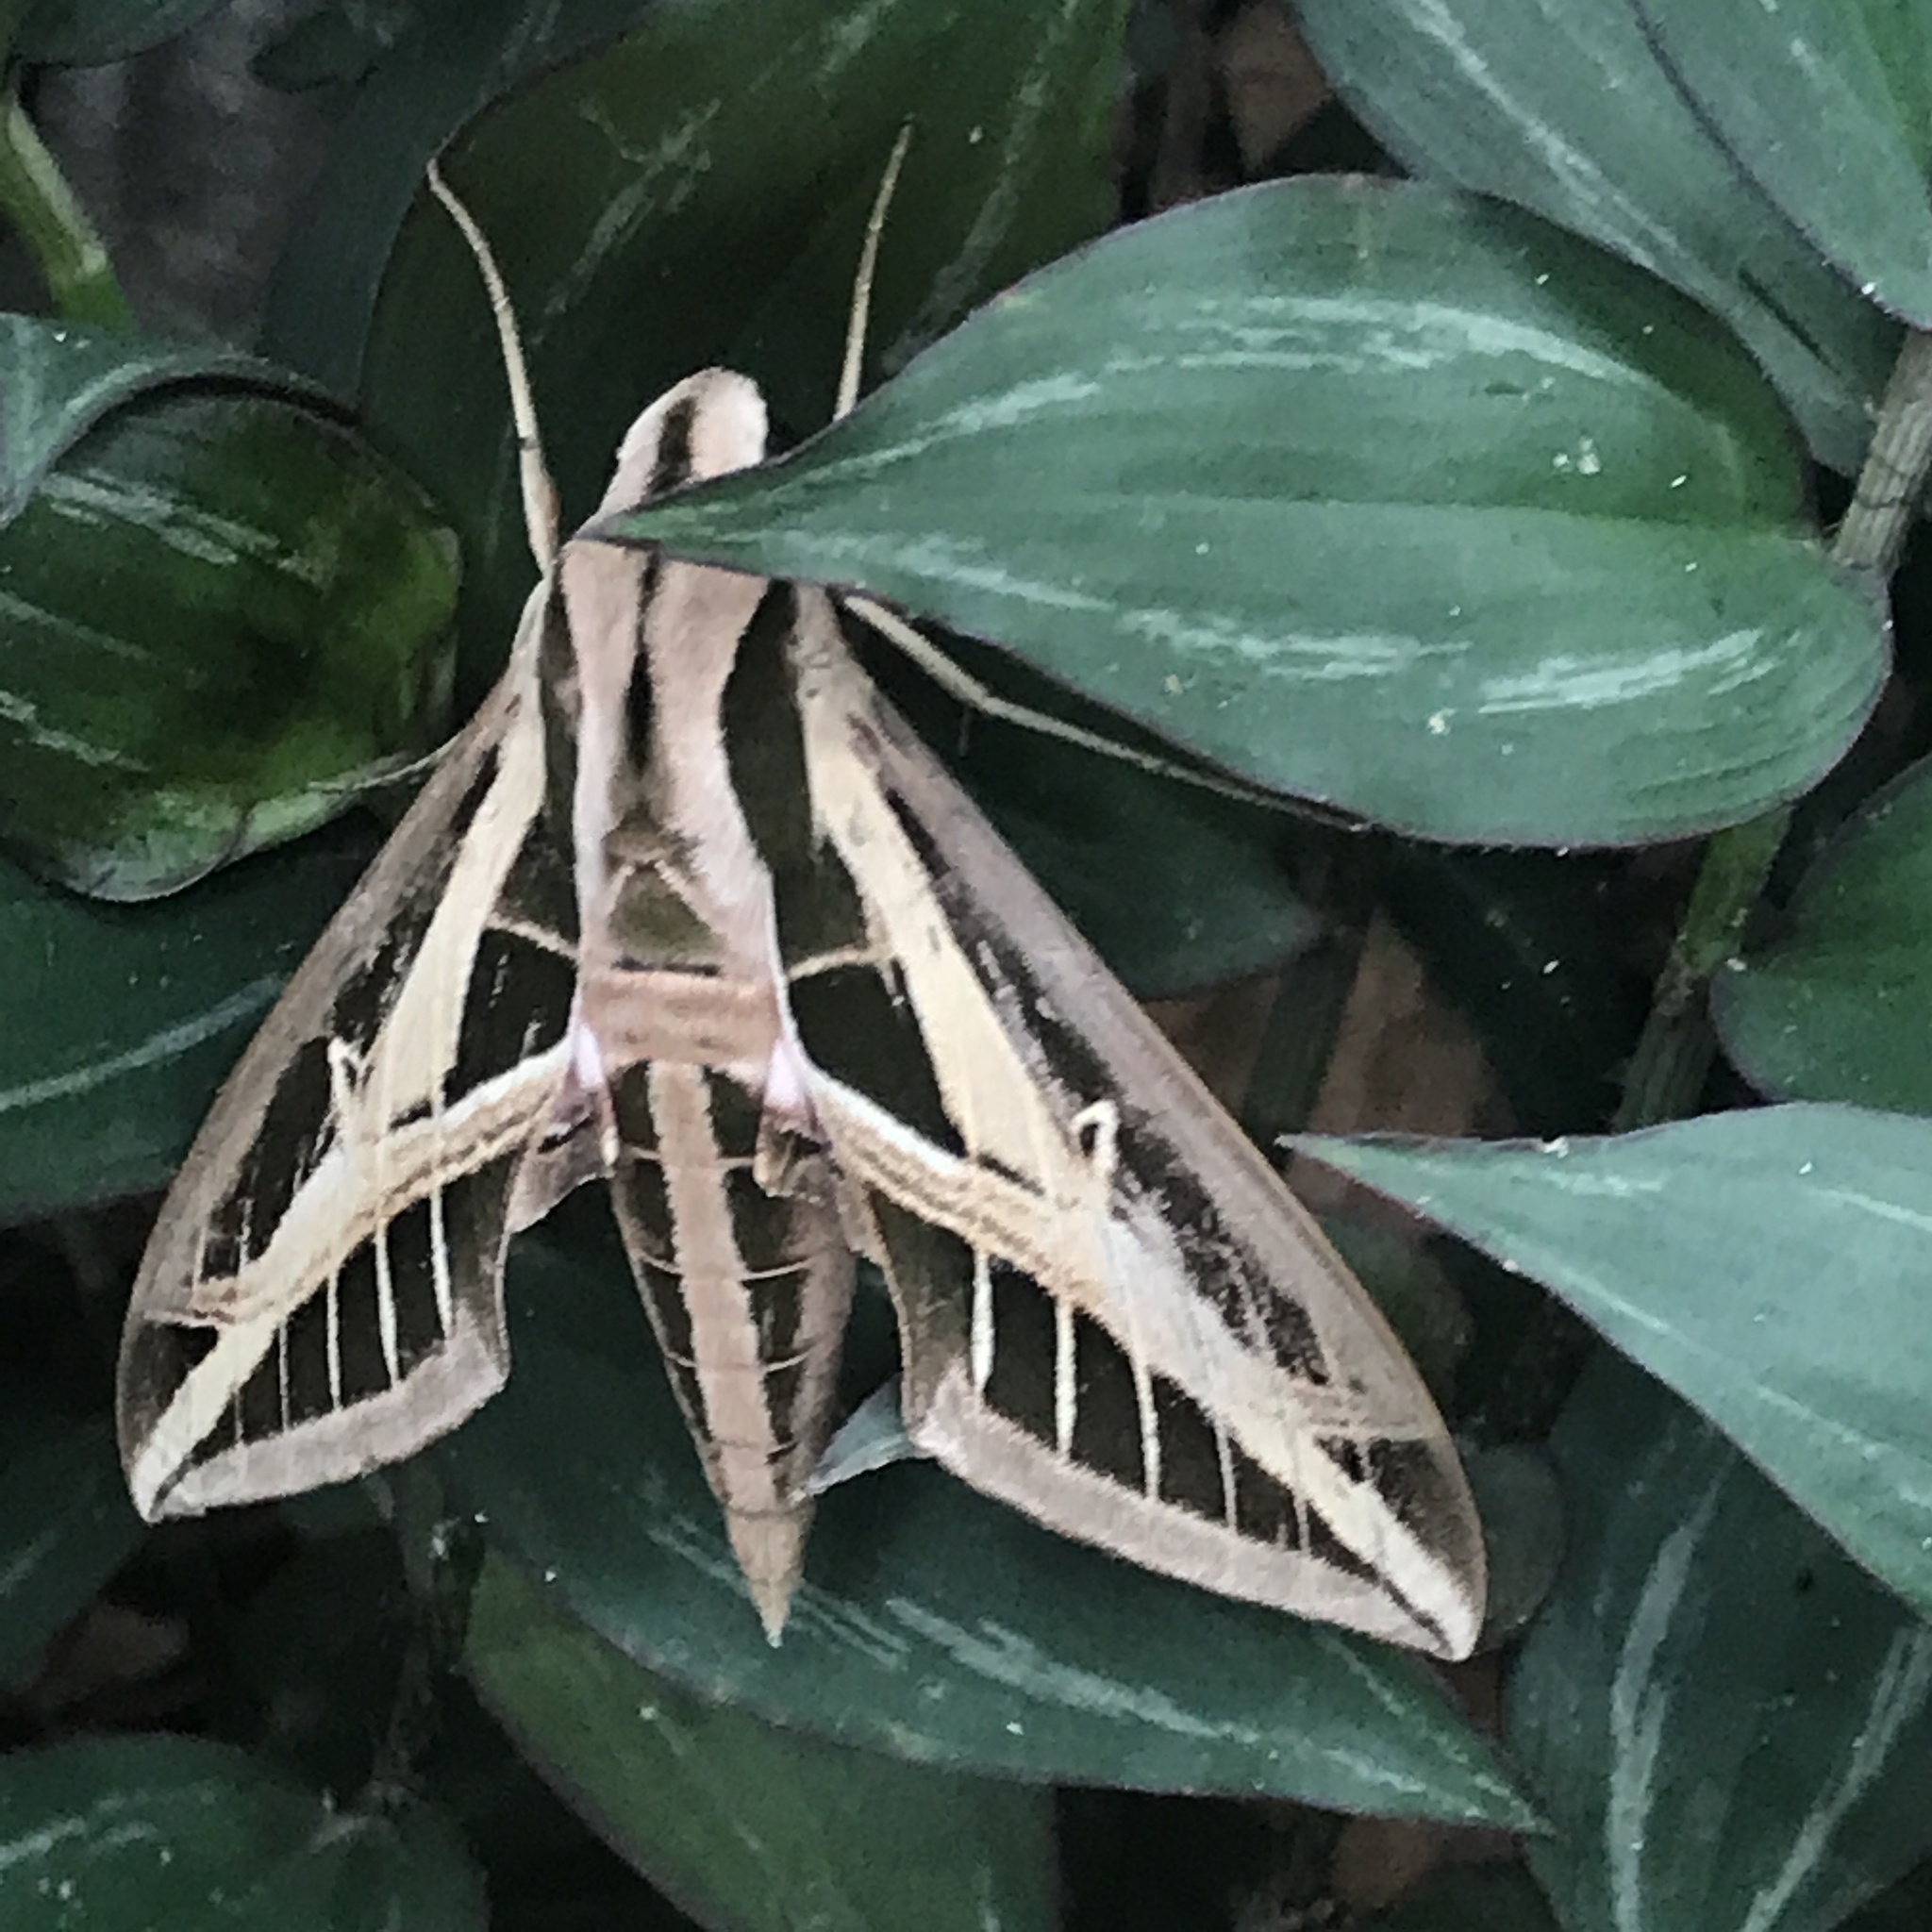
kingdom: Animalia
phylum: Arthropoda
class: Insecta
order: Lepidoptera
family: Sphingidae
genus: Eumorpha
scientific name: Eumorpha fasciatus
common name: Banded sphinx
